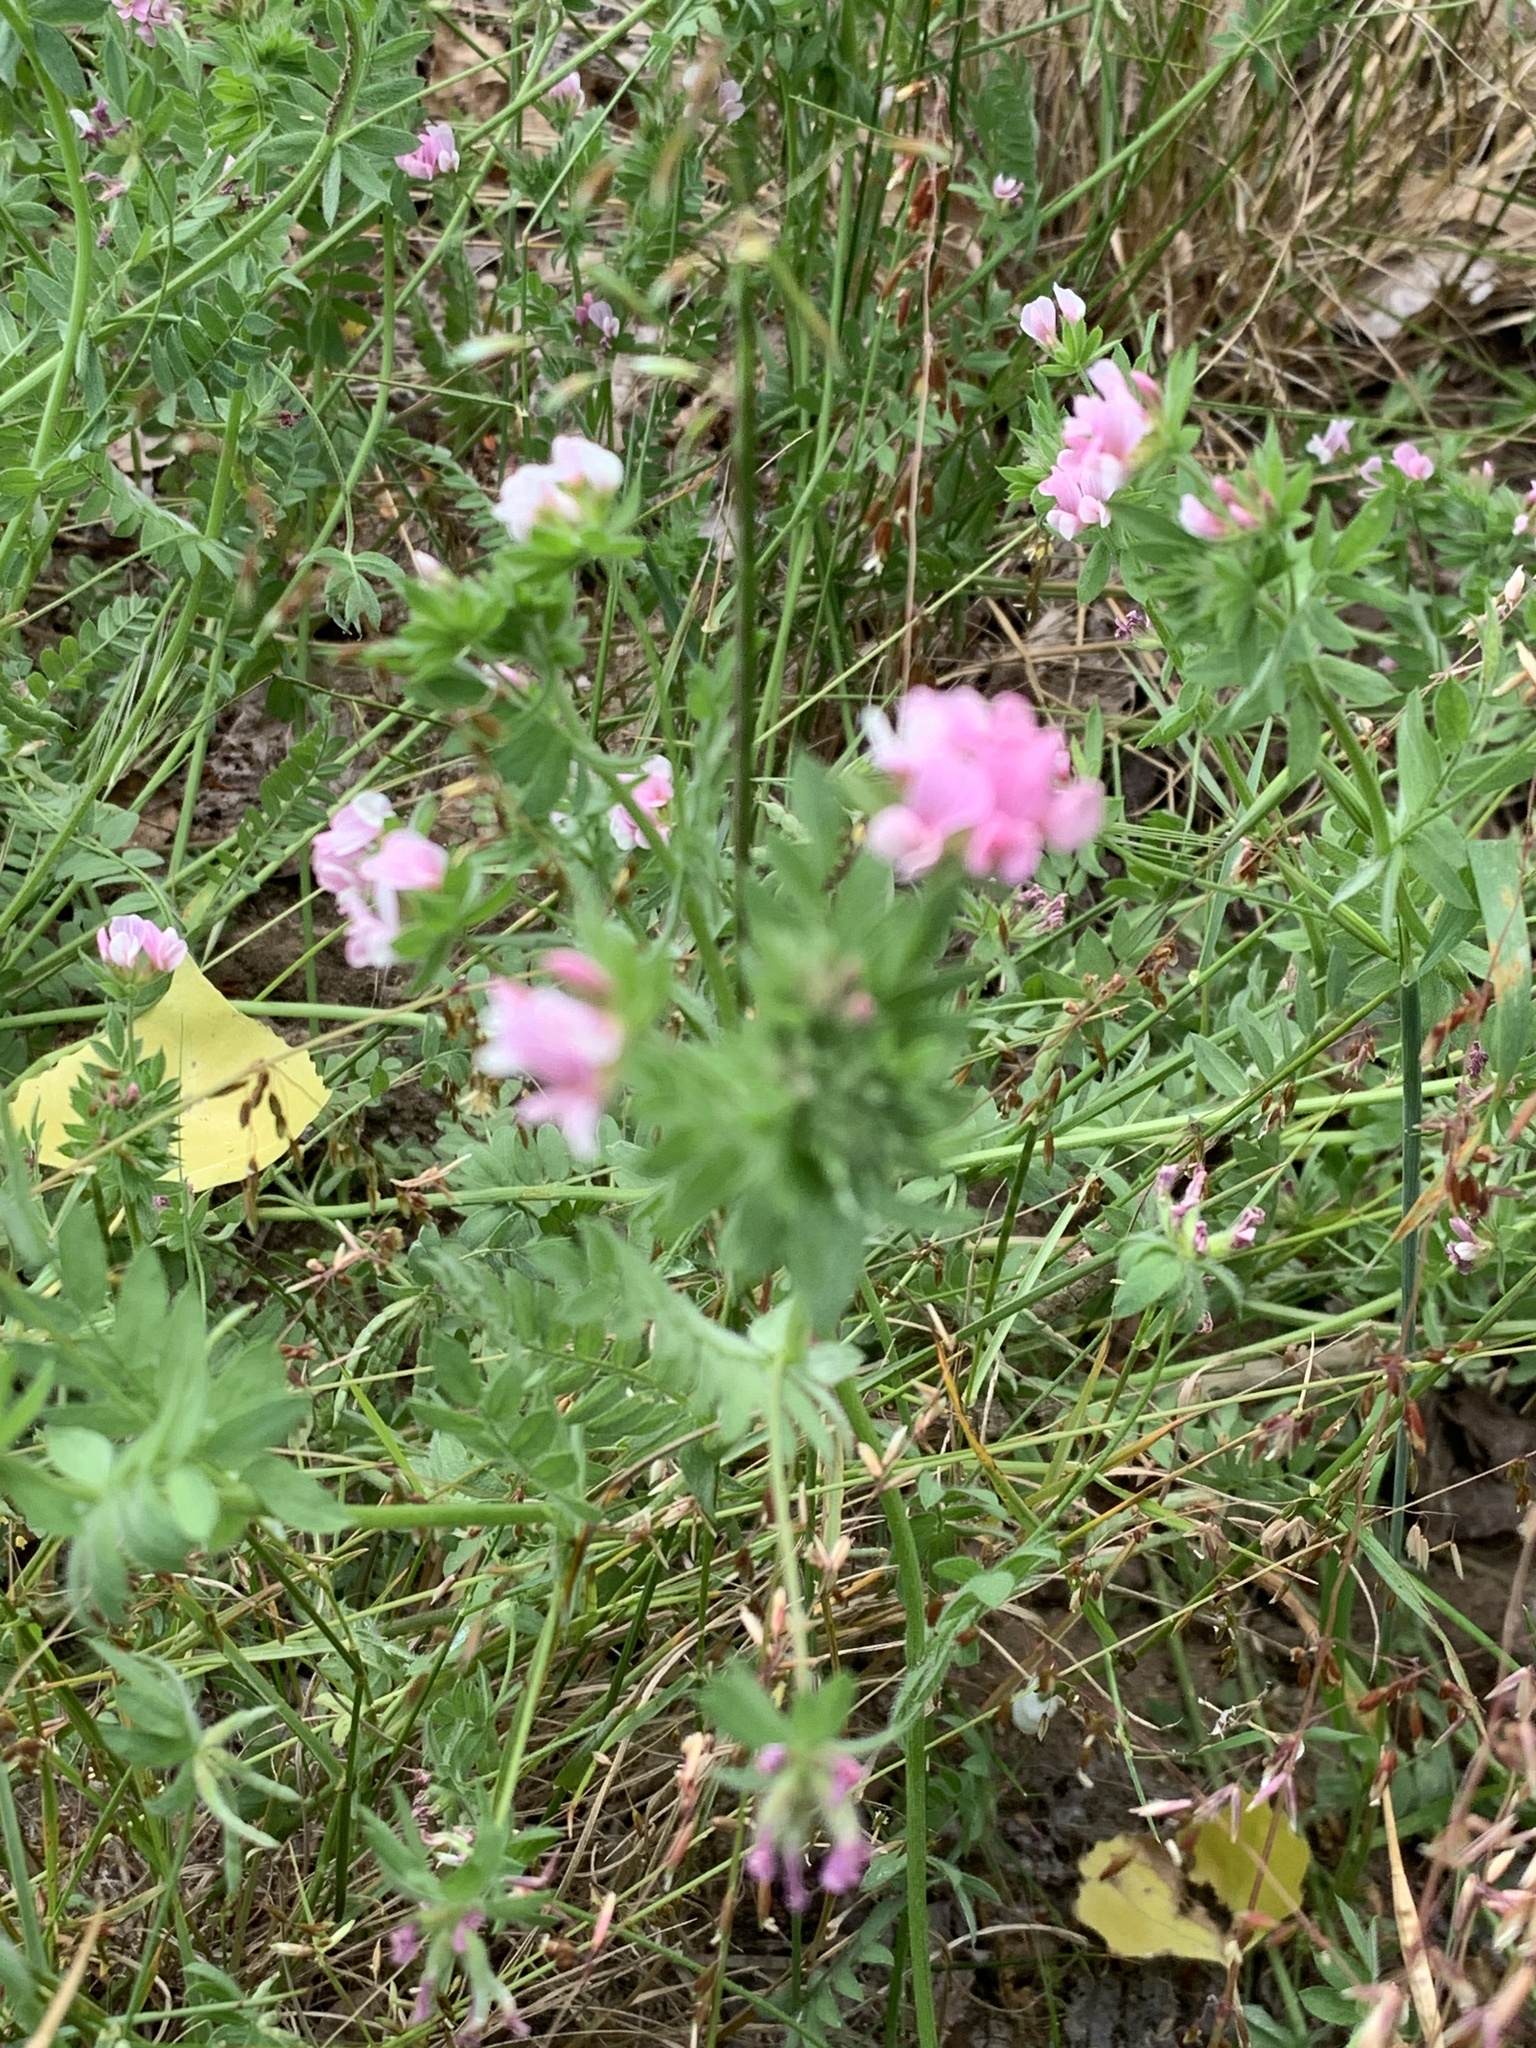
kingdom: Plantae
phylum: Tracheophyta
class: Magnoliopsida
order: Fabales
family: Fabaceae
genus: Ornithopus
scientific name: Ornithopus sativus
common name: Serradella
